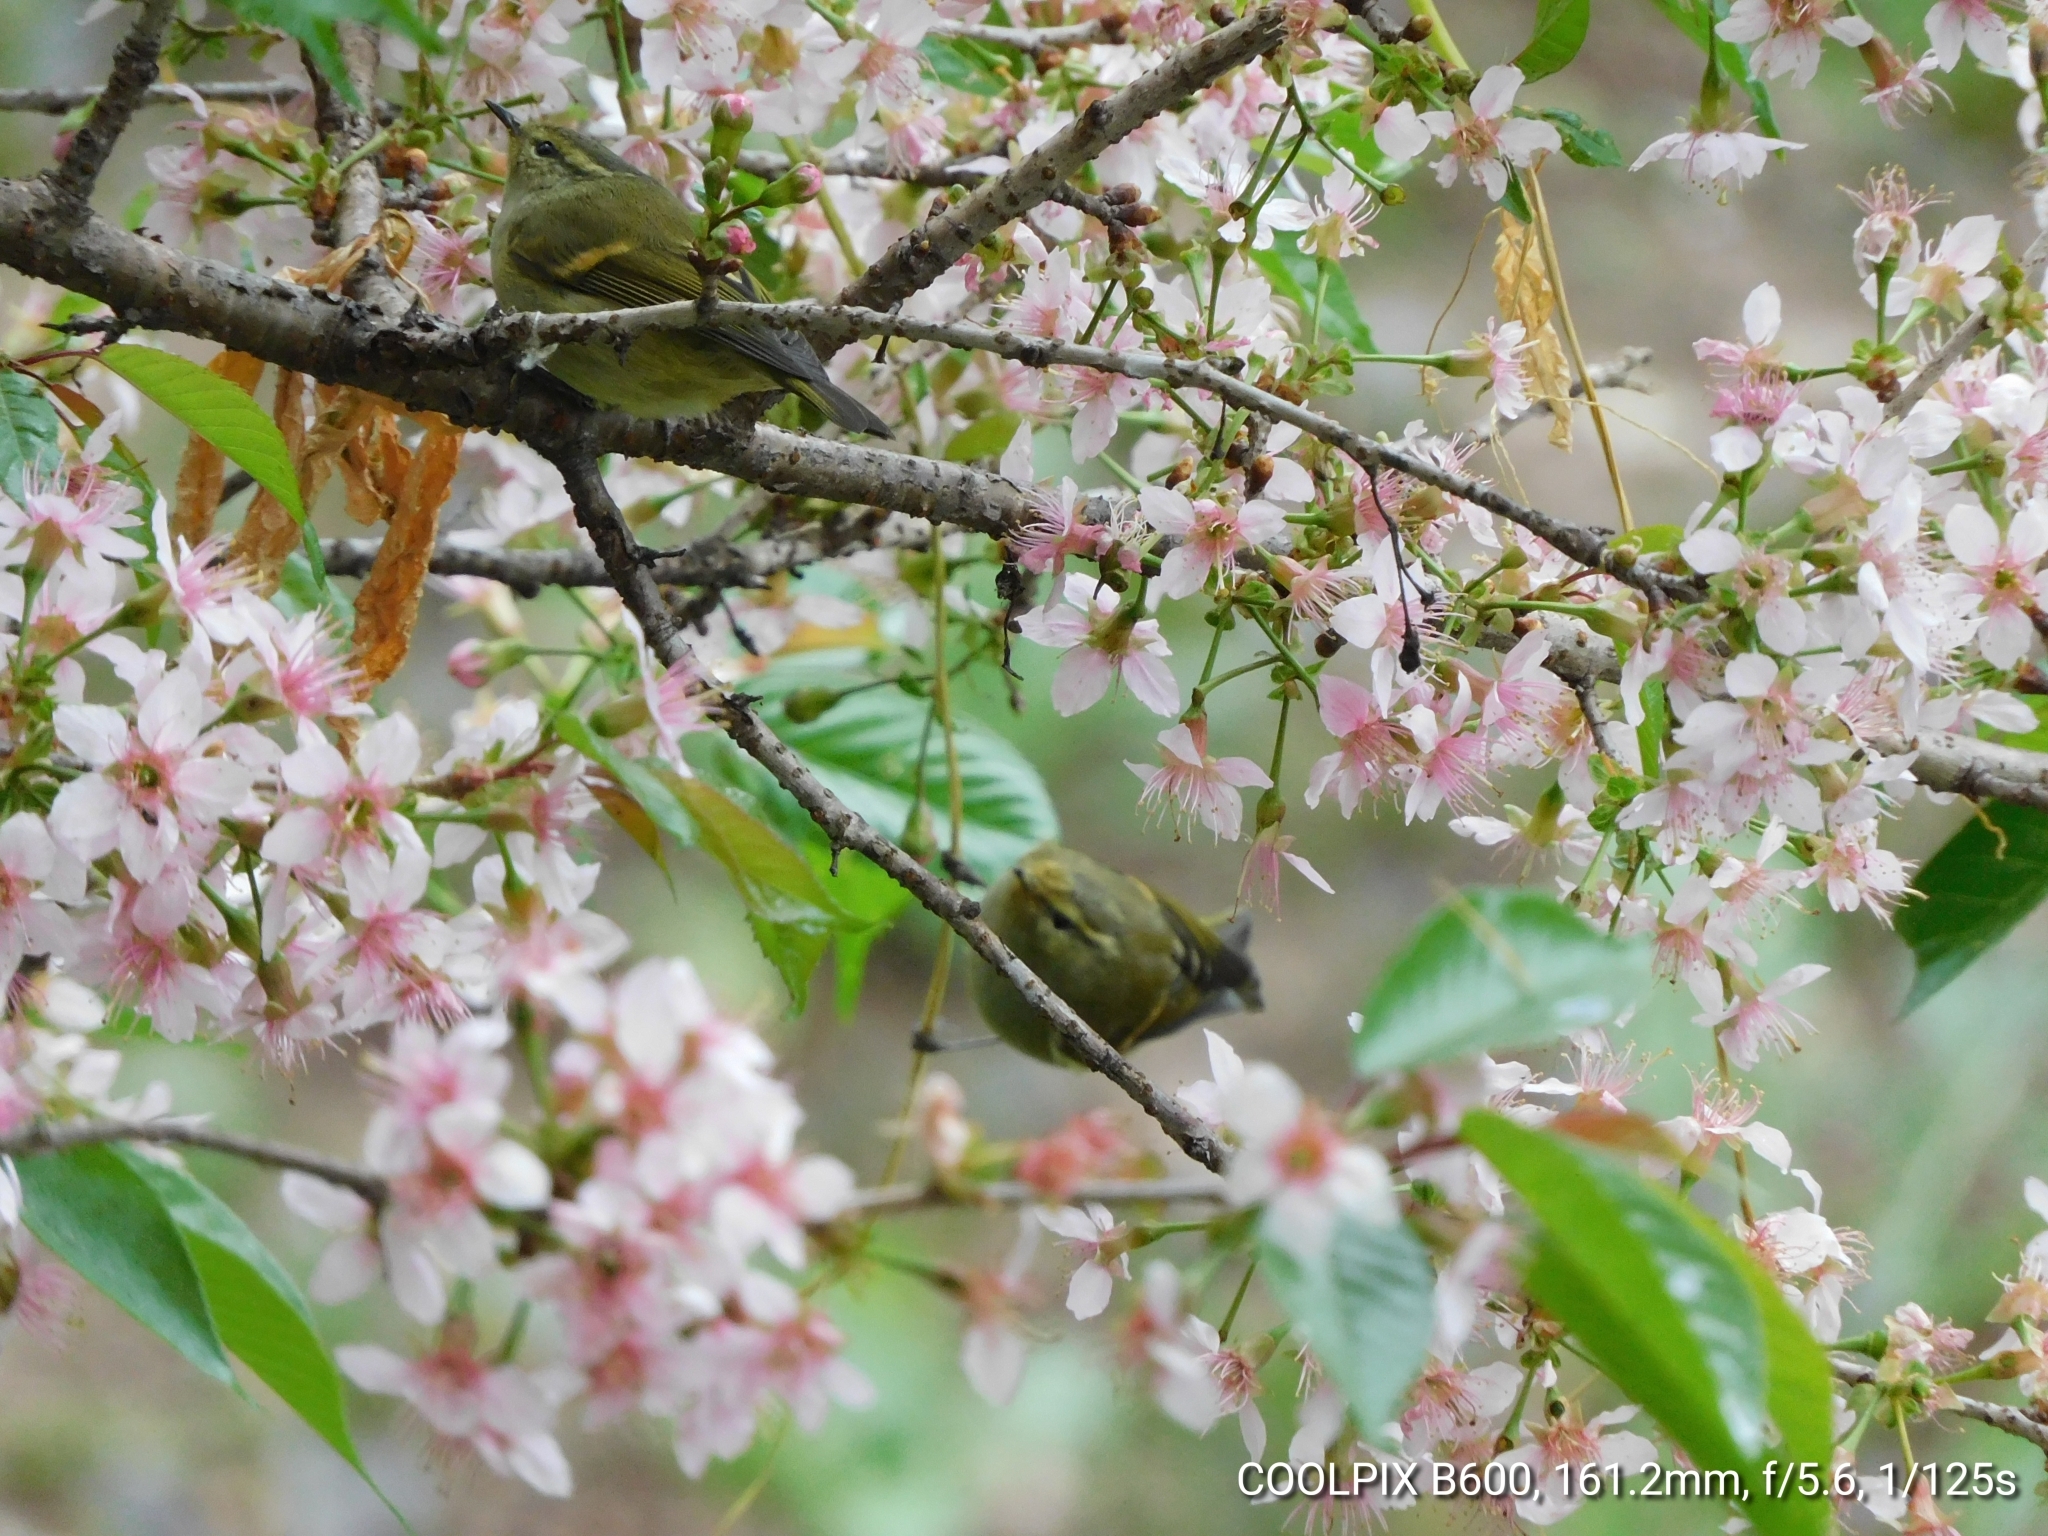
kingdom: Animalia
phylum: Chordata
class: Aves
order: Passeriformes
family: Phylloscopidae
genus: Phylloscopus
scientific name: Phylloscopus pulcher
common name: Buff-barred warbler
